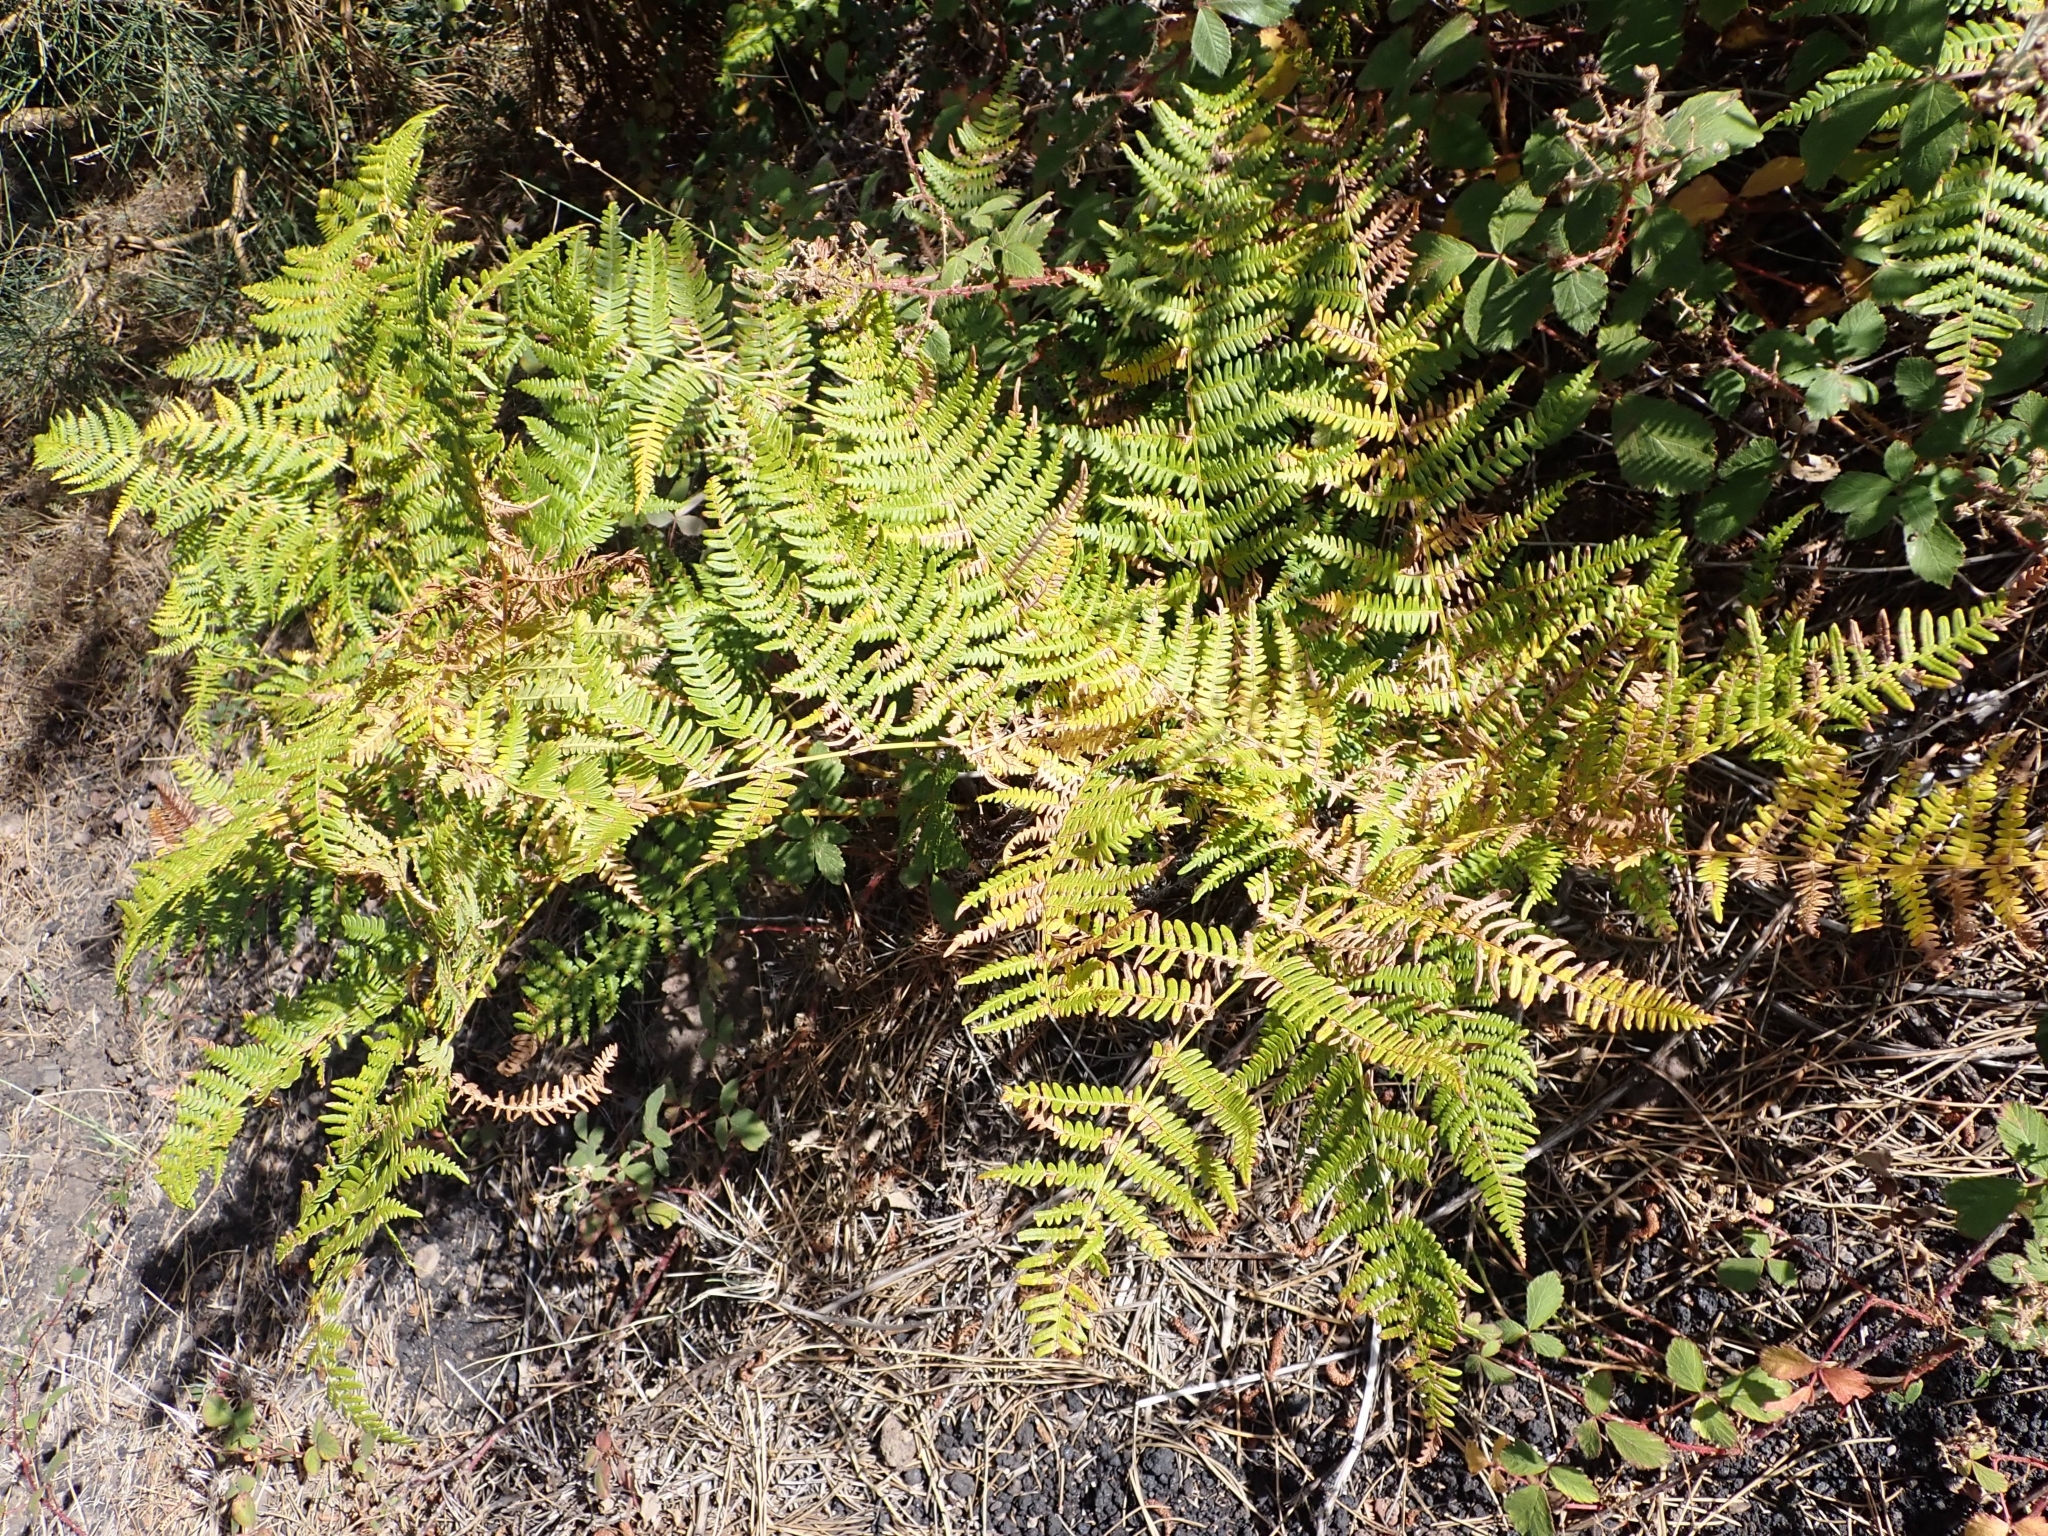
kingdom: Plantae
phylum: Tracheophyta
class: Polypodiopsida
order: Polypodiales
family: Dennstaedtiaceae
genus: Pteridium
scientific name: Pteridium aquilinum
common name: Bracken
